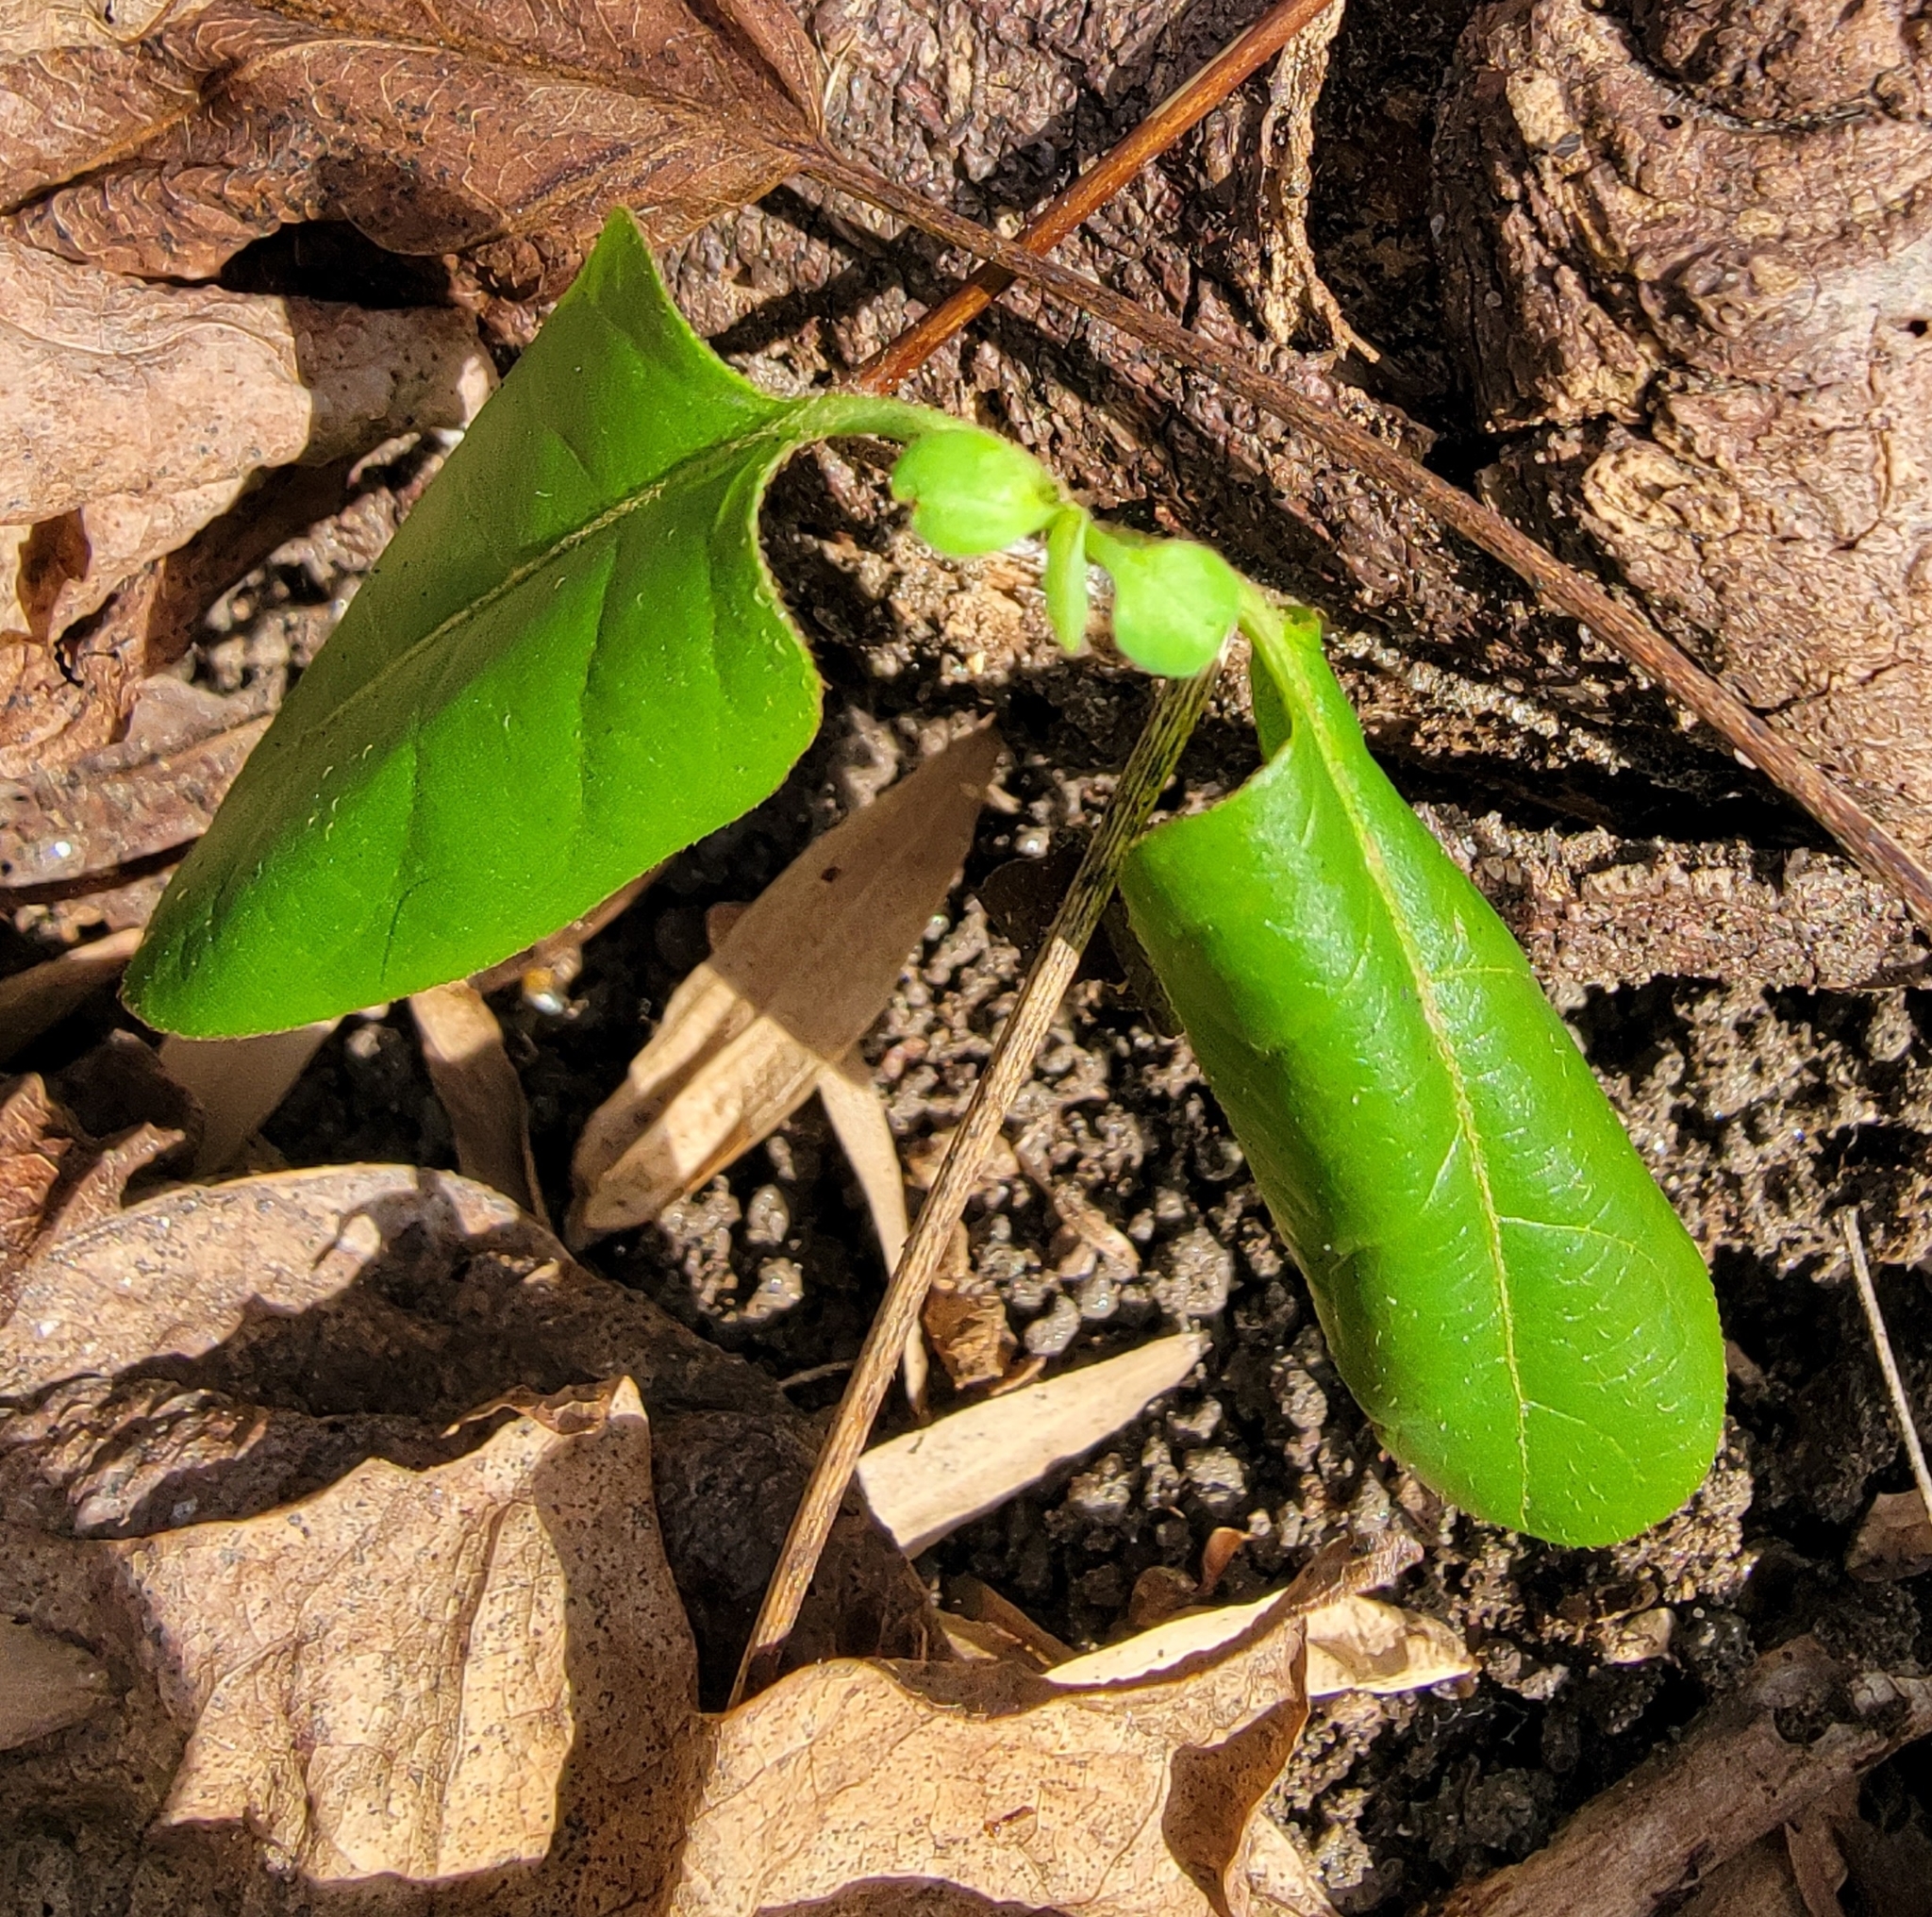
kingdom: Plantae
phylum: Tracheophyta
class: Magnoliopsida
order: Dipsacales
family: Caprifoliaceae
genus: Lonicera
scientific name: Lonicera japonica
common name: Japanese honeysuckle
